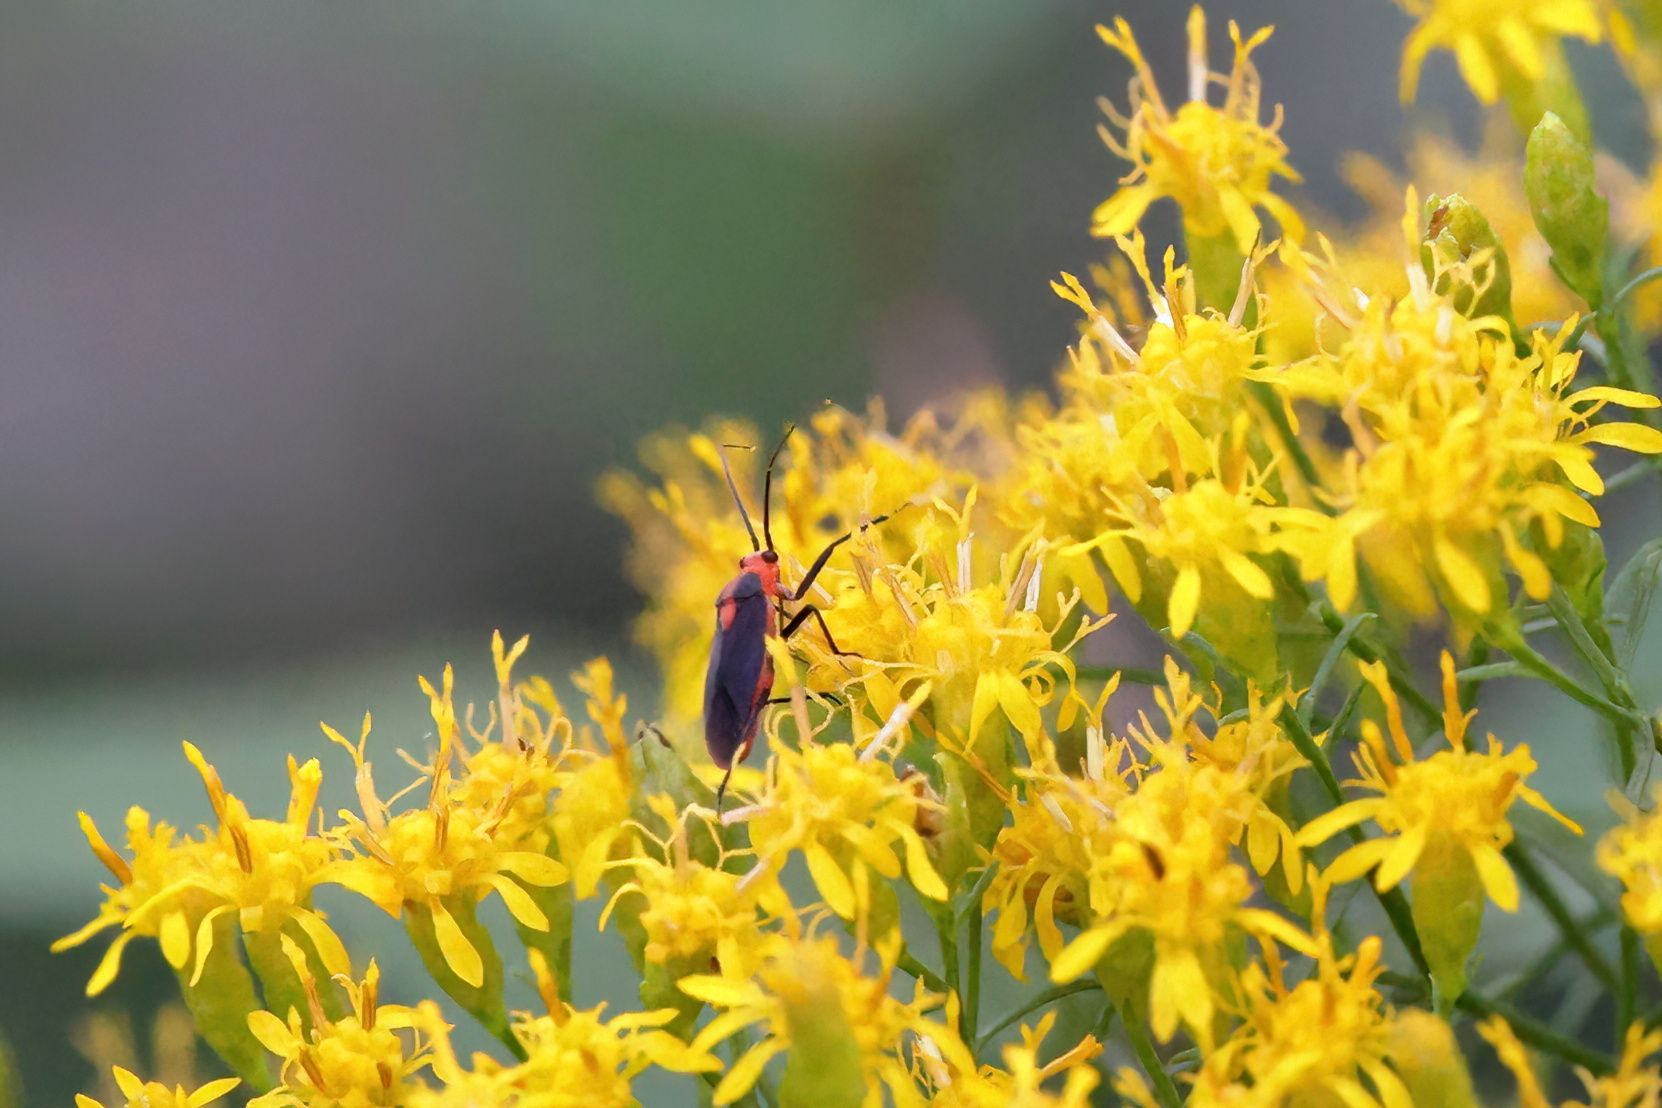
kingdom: Animalia
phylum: Arthropoda
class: Insecta
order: Hemiptera
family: Miridae
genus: Prepops
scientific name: Prepops rubrovittatus
